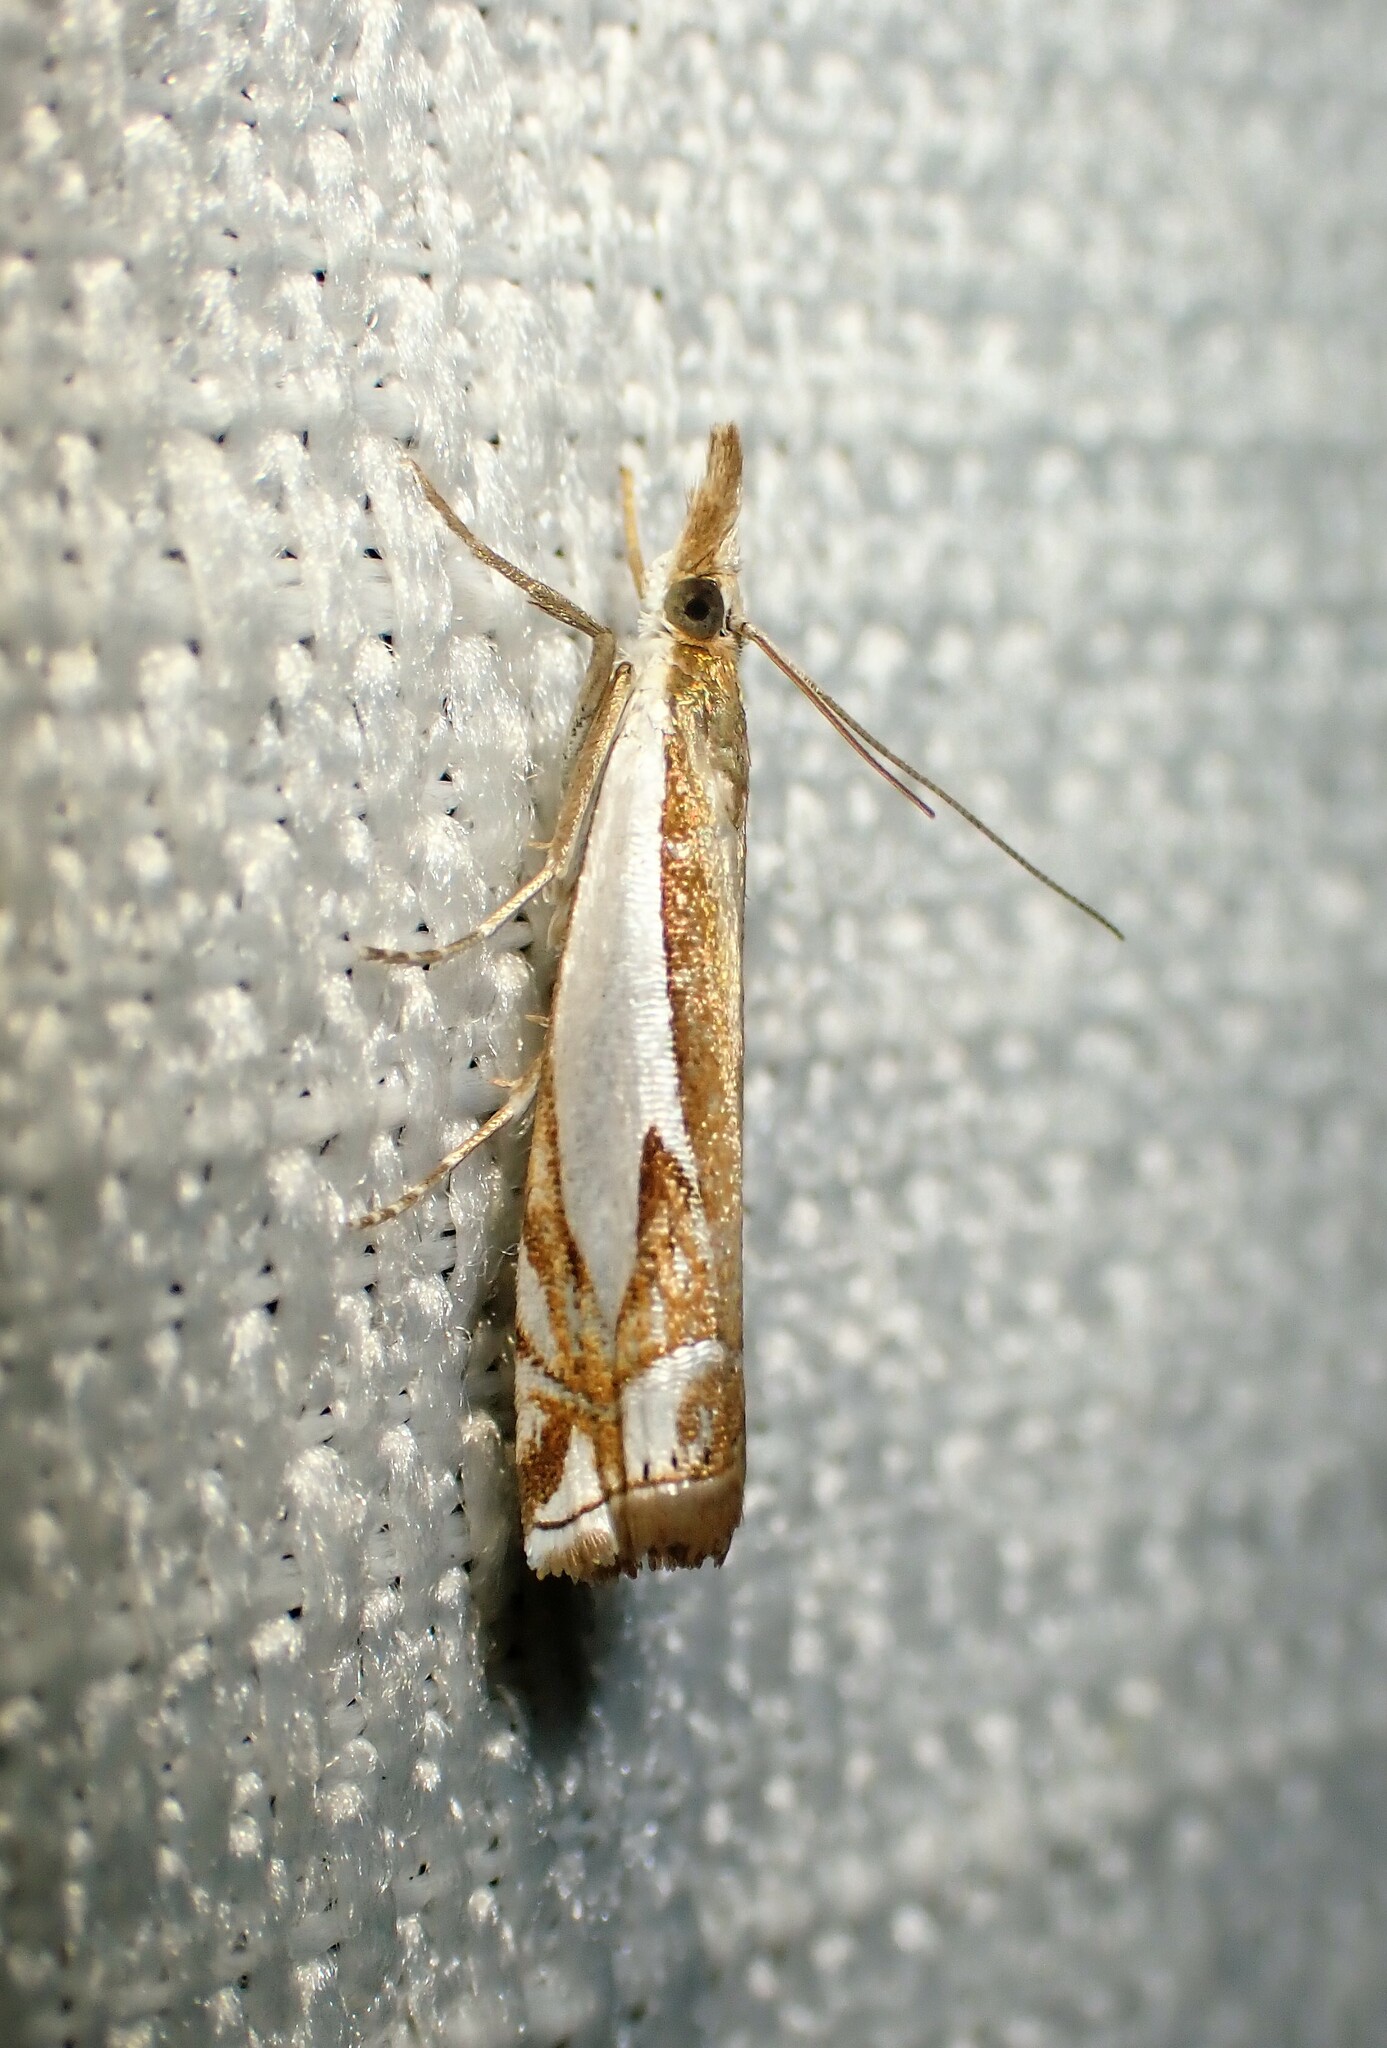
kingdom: Animalia
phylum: Arthropoda
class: Insecta
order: Lepidoptera
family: Crambidae
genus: Crambus
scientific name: Crambus bidens
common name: Forked grass-veneer
